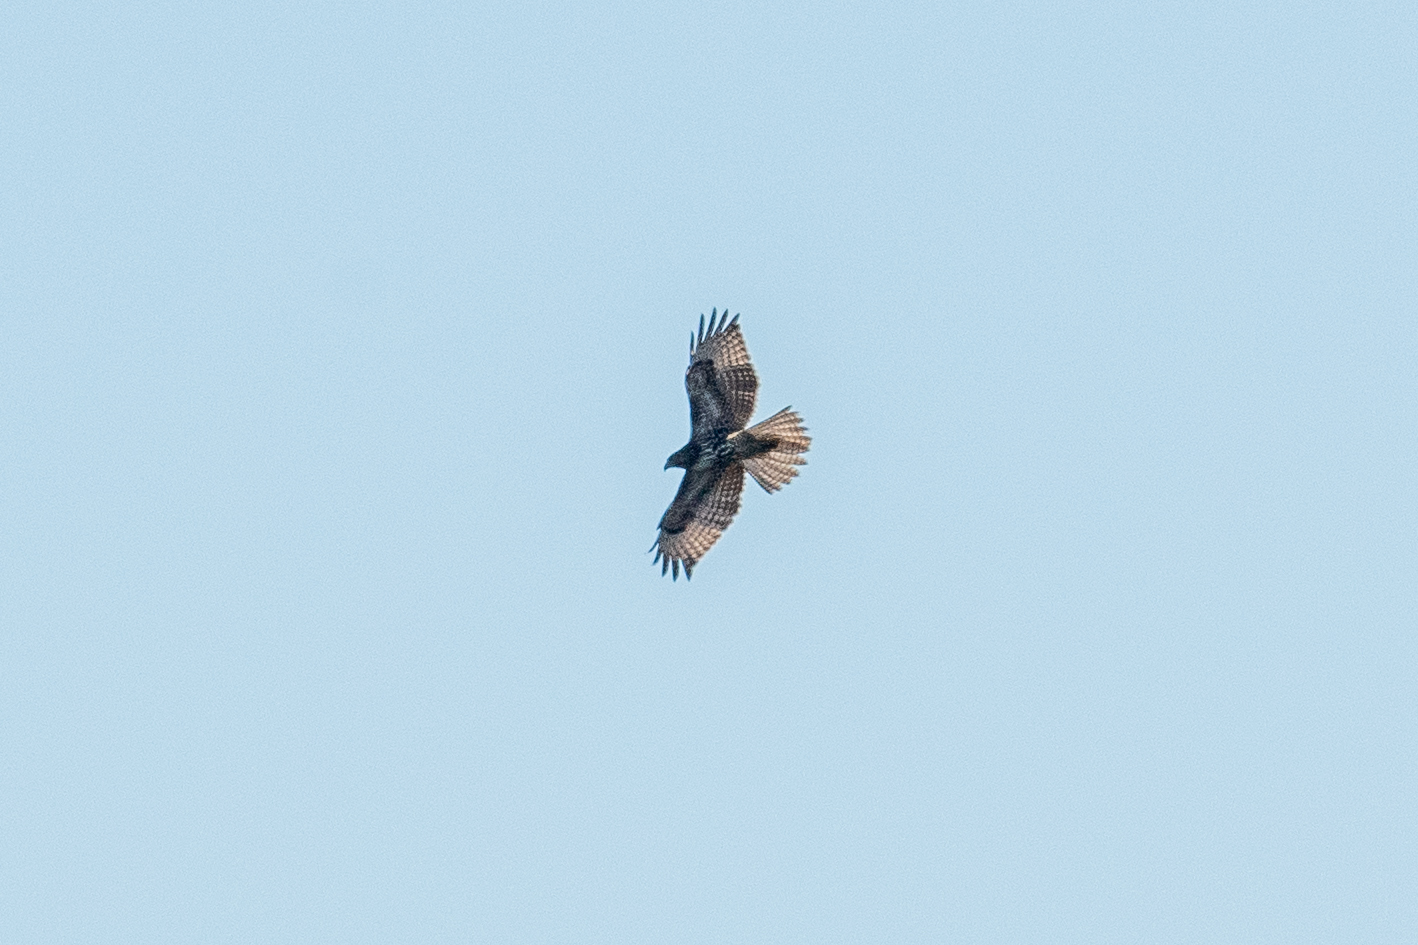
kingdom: Animalia
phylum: Chordata
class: Aves
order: Accipitriformes
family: Accipitridae
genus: Buteo
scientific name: Buteo jamaicensis
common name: Red-tailed hawk
